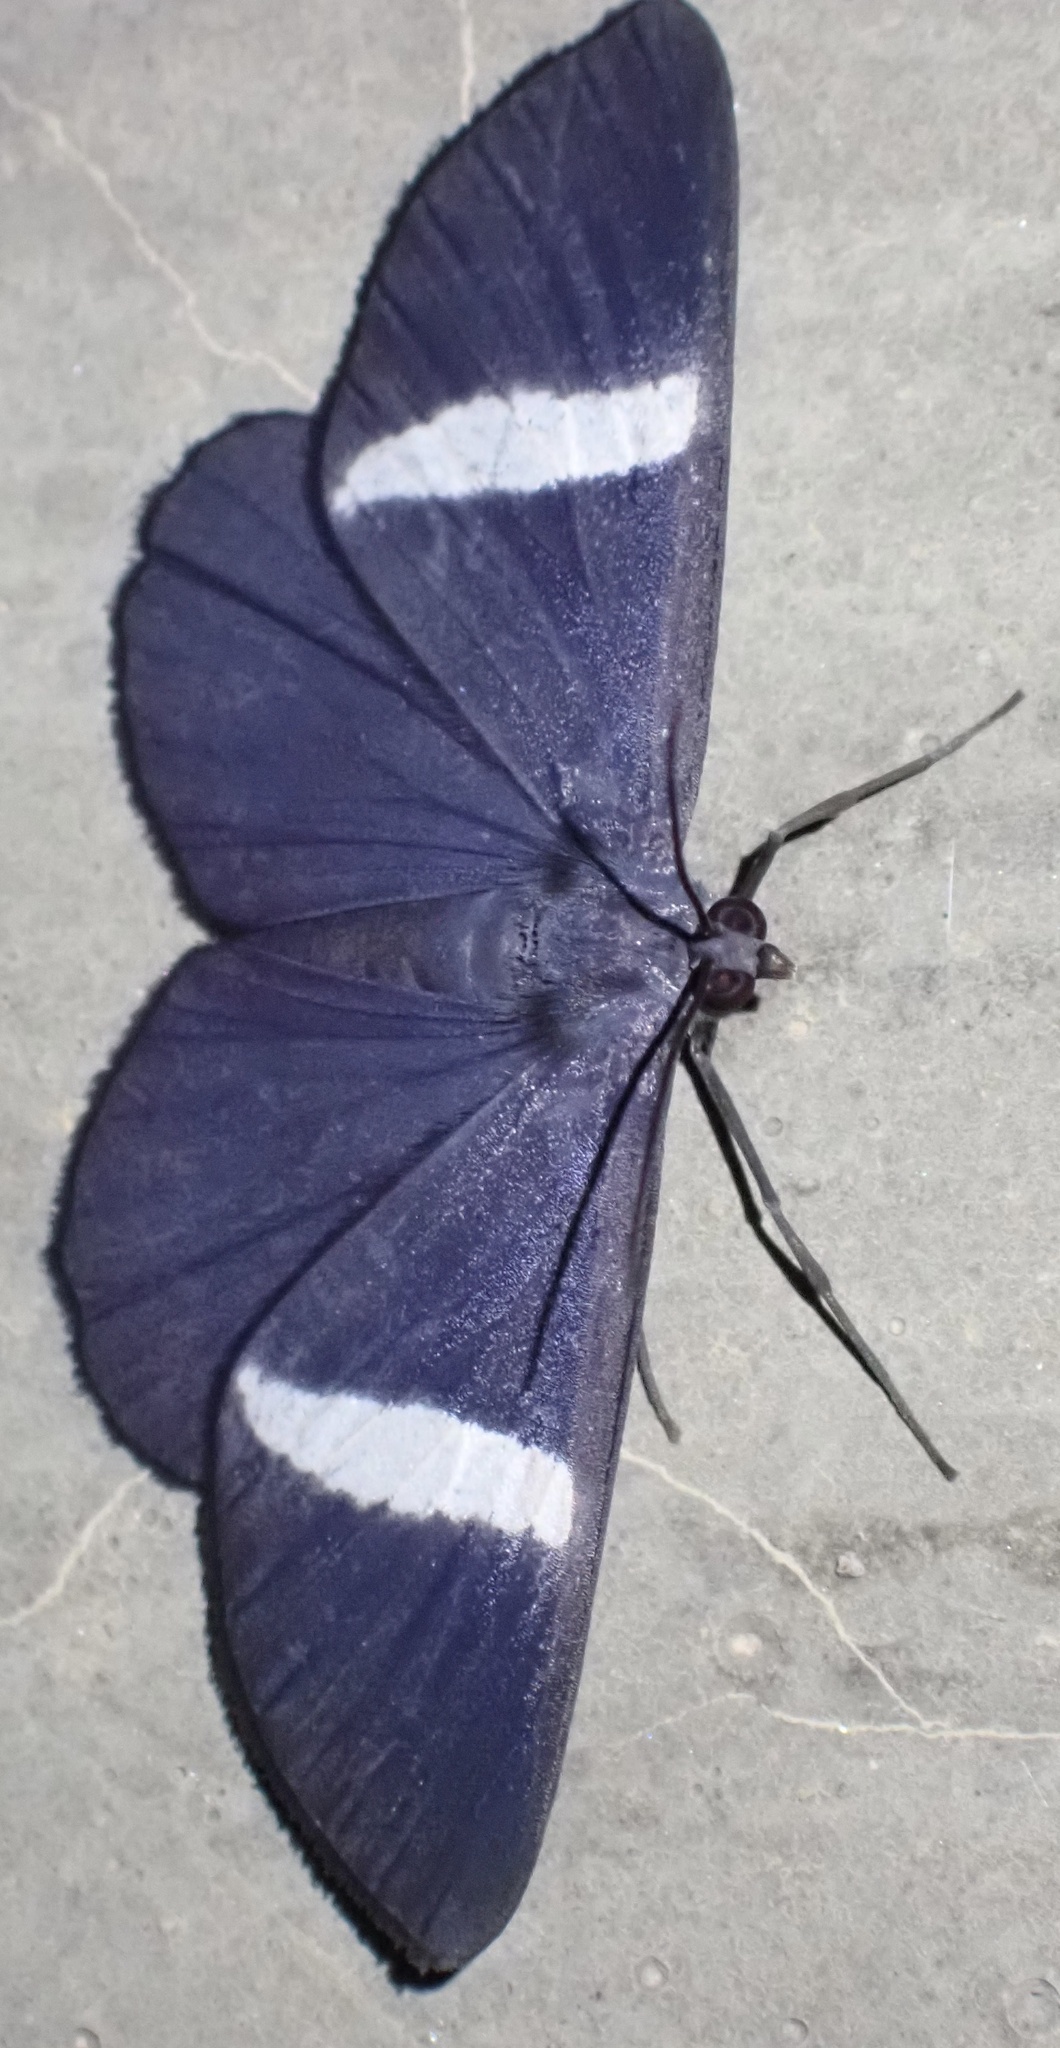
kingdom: Animalia
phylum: Arthropoda
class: Insecta
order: Lepidoptera
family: Geometridae
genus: Craspedosis
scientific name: Craspedosis transtinens
